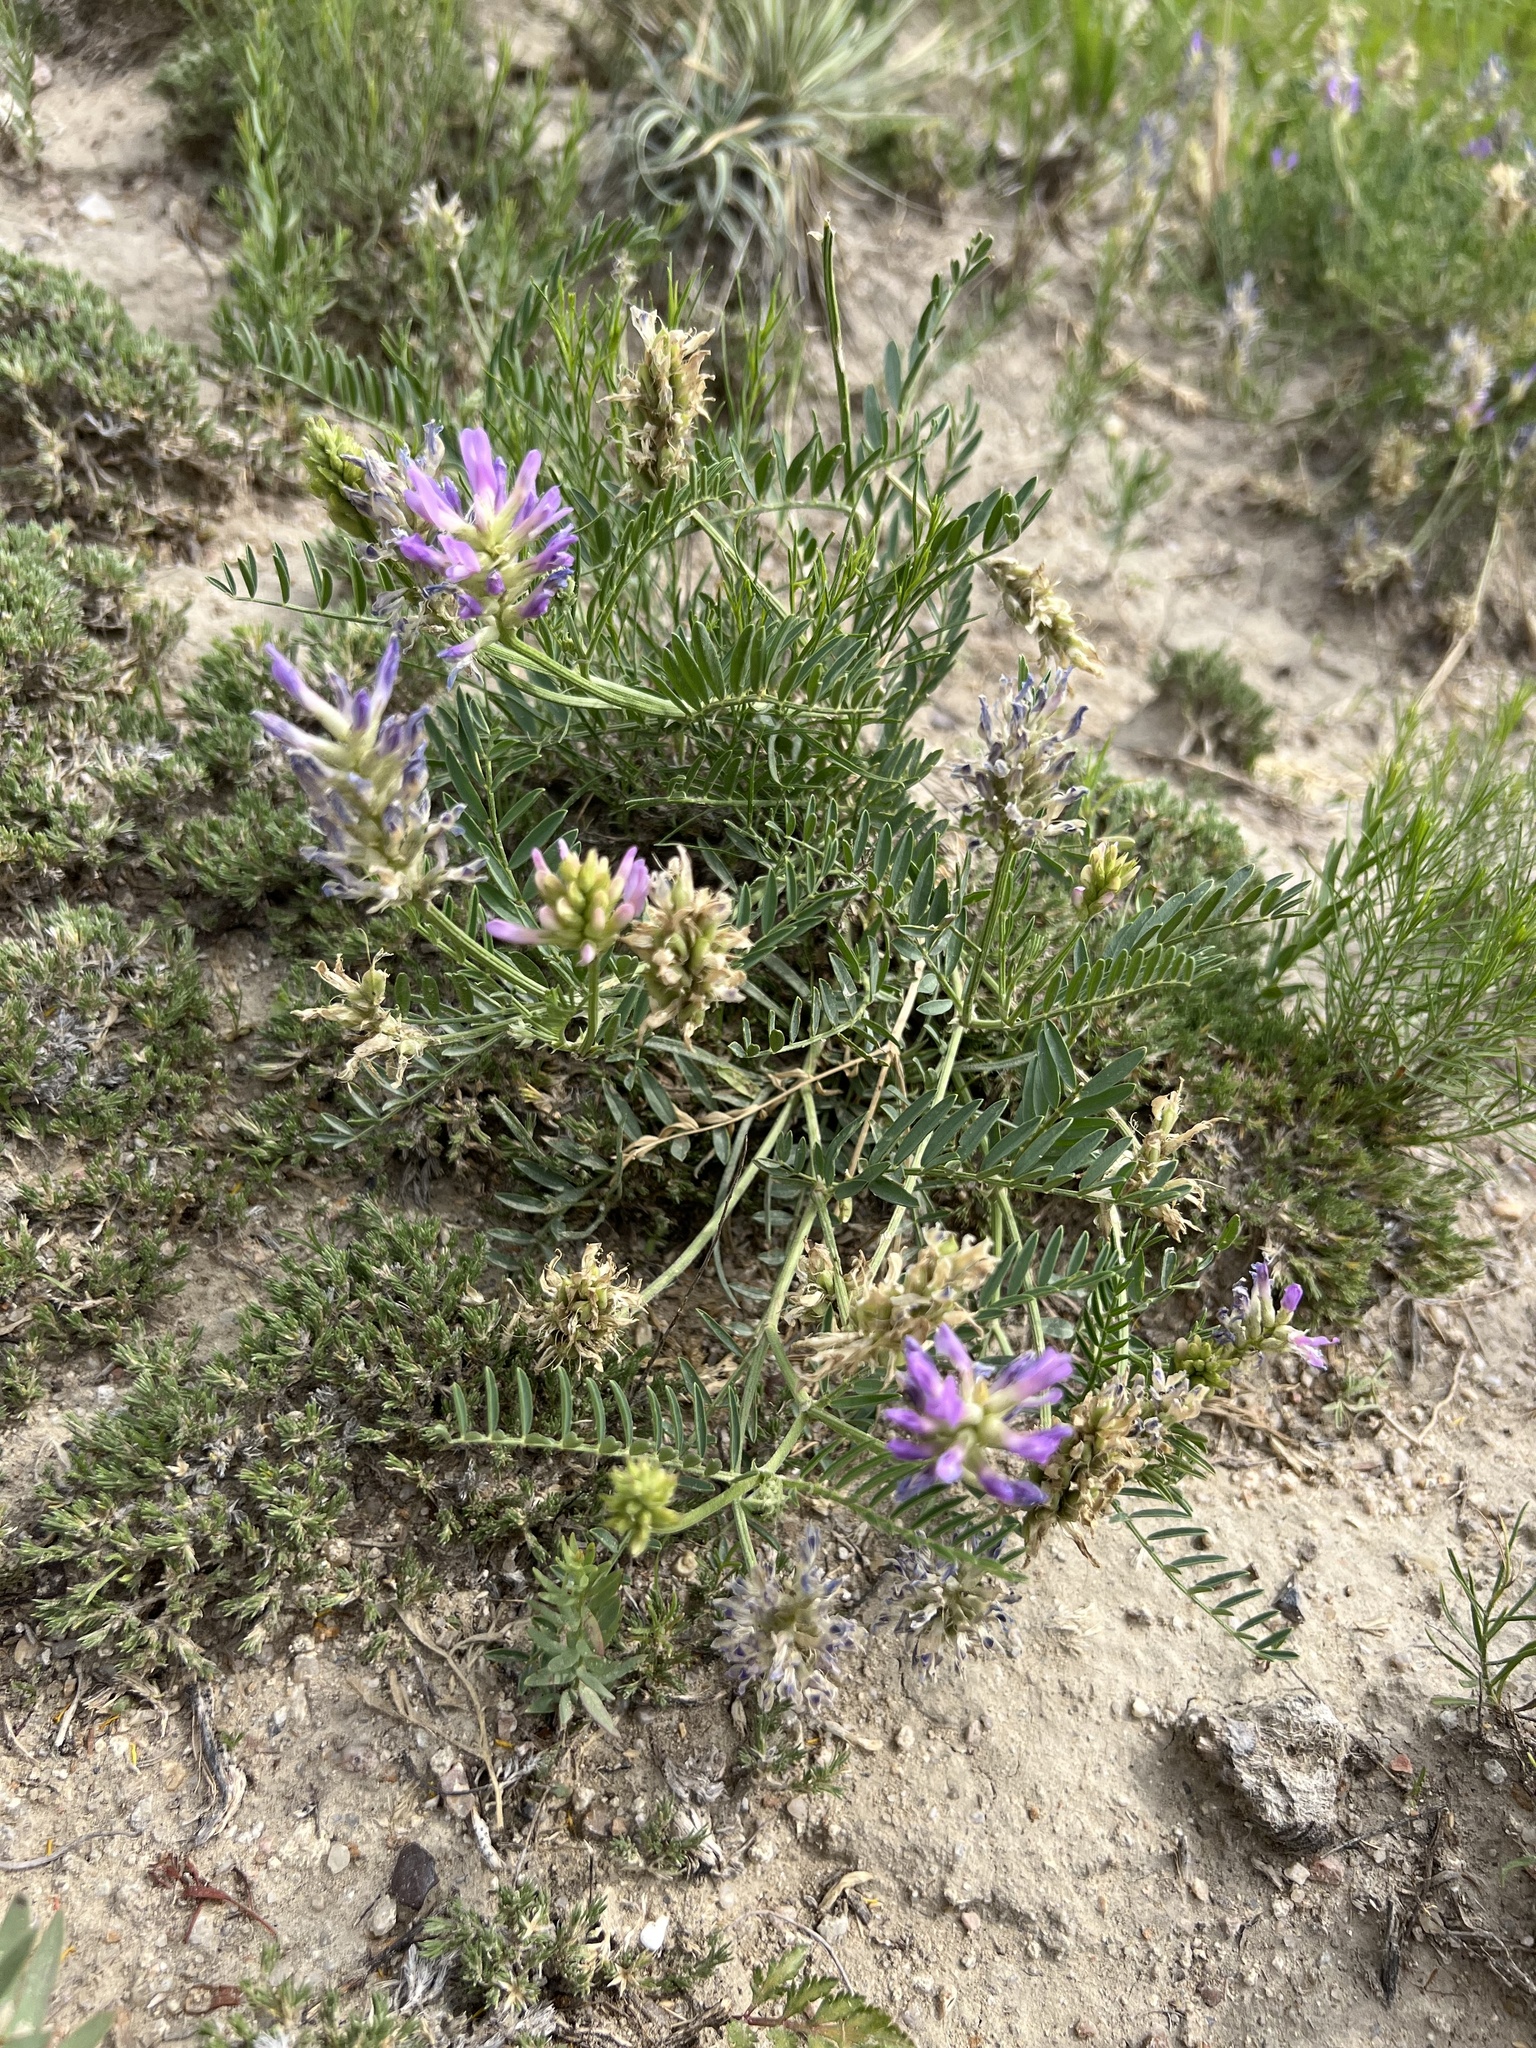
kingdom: Plantae
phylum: Tracheophyta
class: Magnoliopsida
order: Fabales
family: Fabaceae
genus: Astragalus
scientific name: Astragalus laxmannii
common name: Laxmann's milk-vetch
